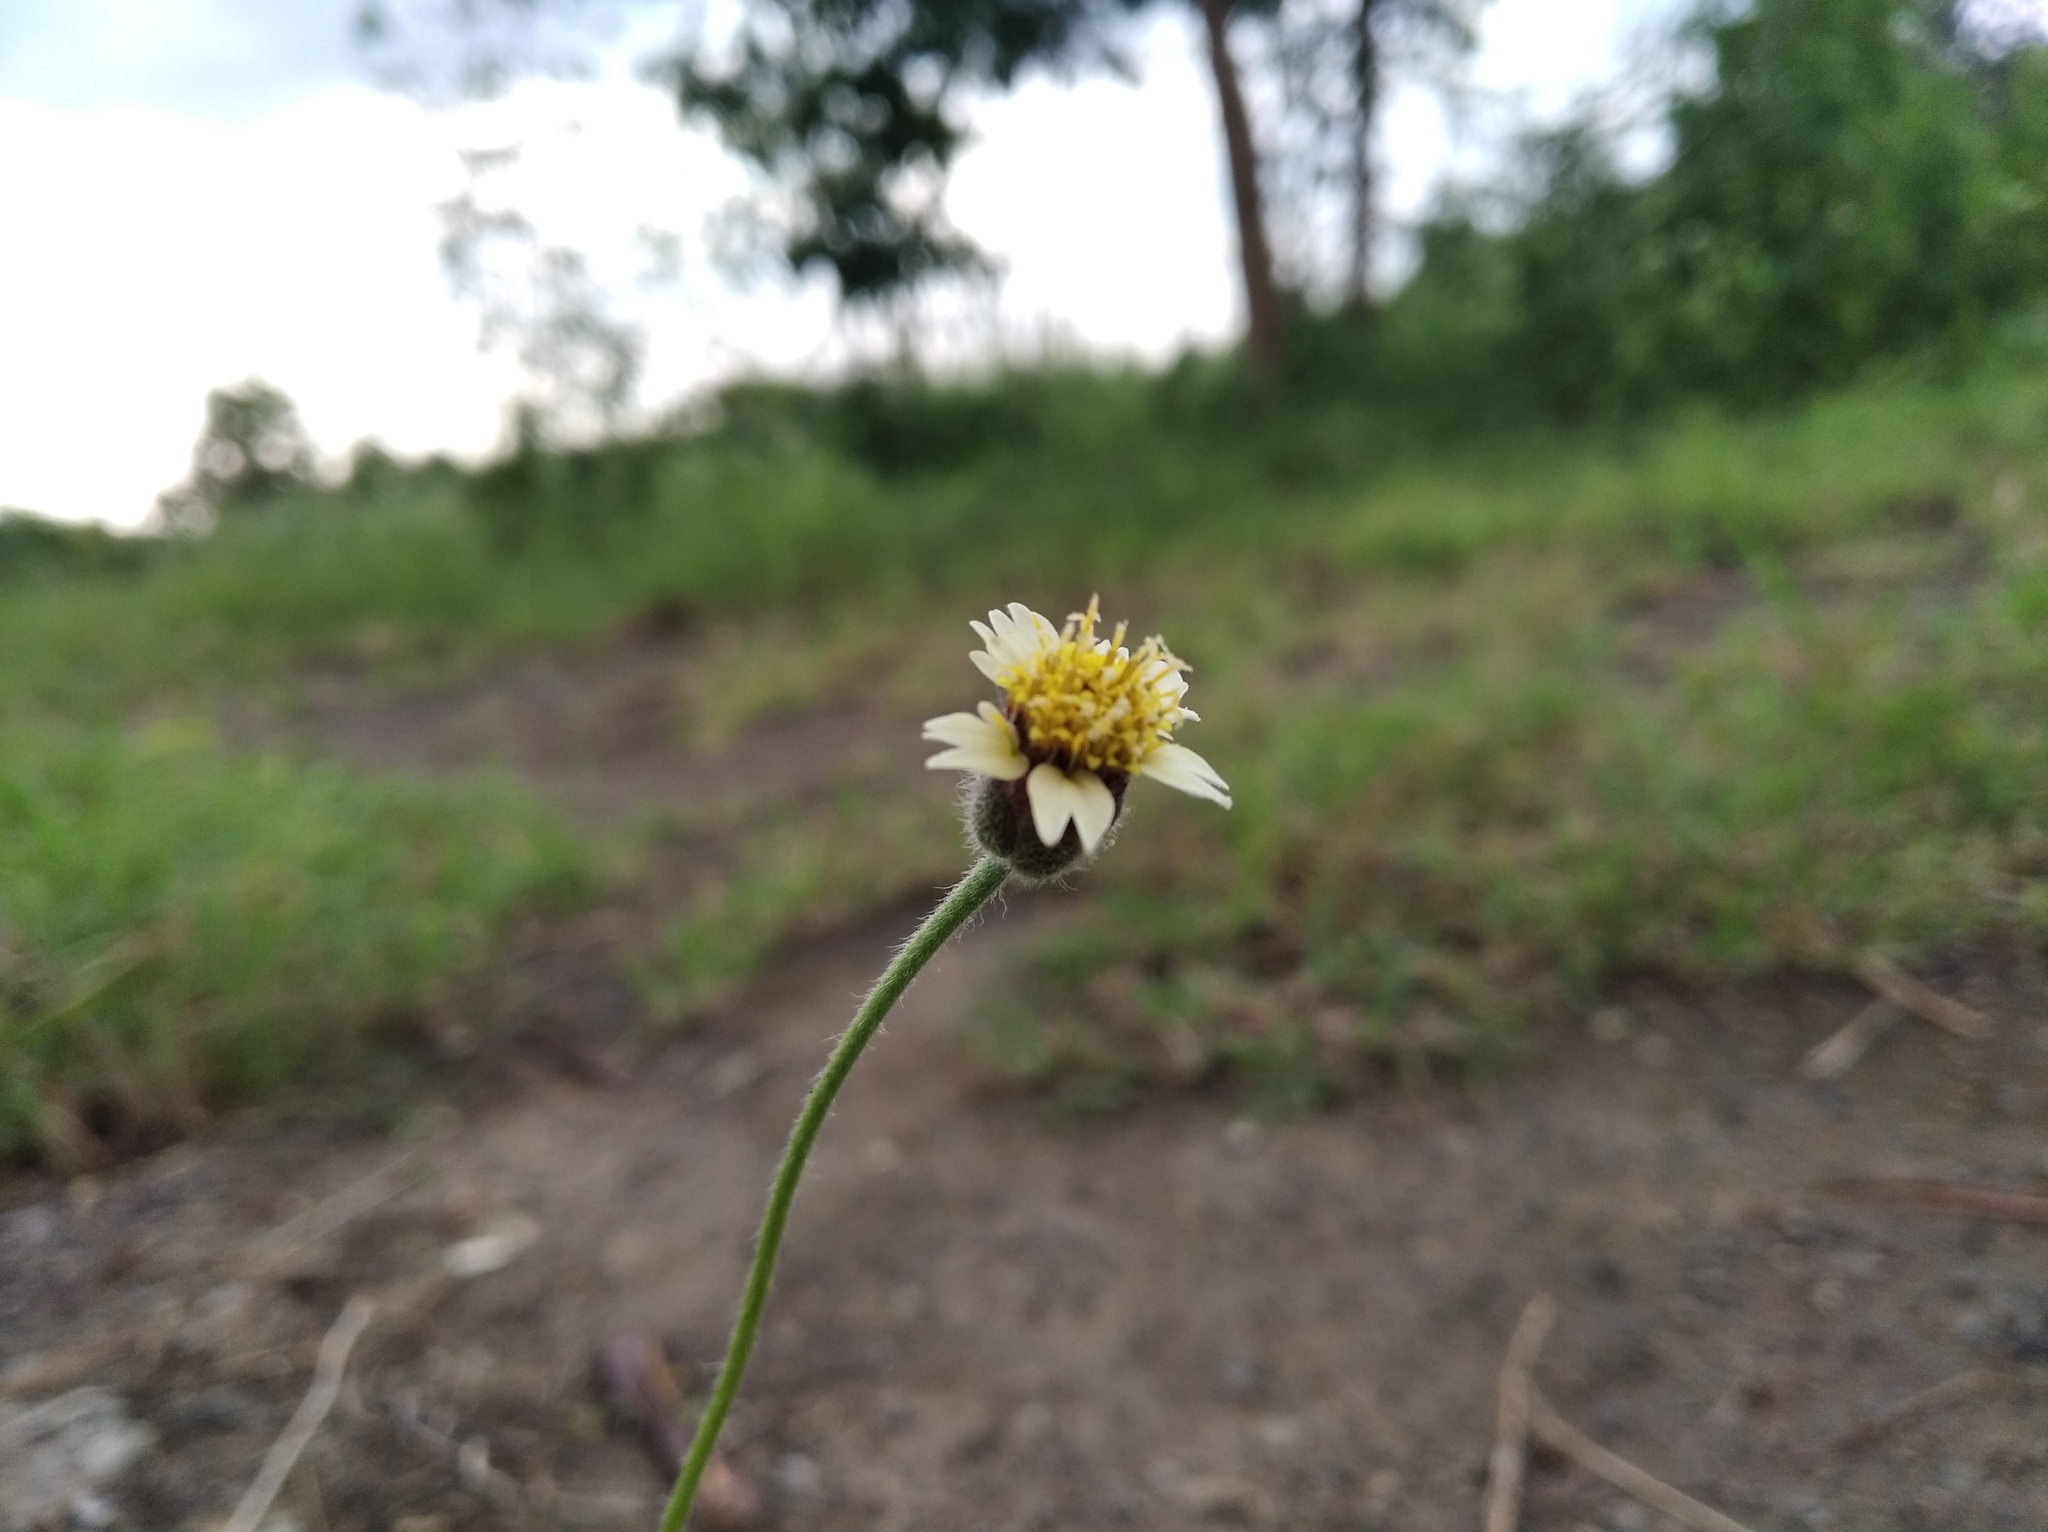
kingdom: Plantae
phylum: Tracheophyta
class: Magnoliopsida
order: Asterales
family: Asteraceae
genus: Tridax
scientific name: Tridax procumbens
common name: Coatbuttons
